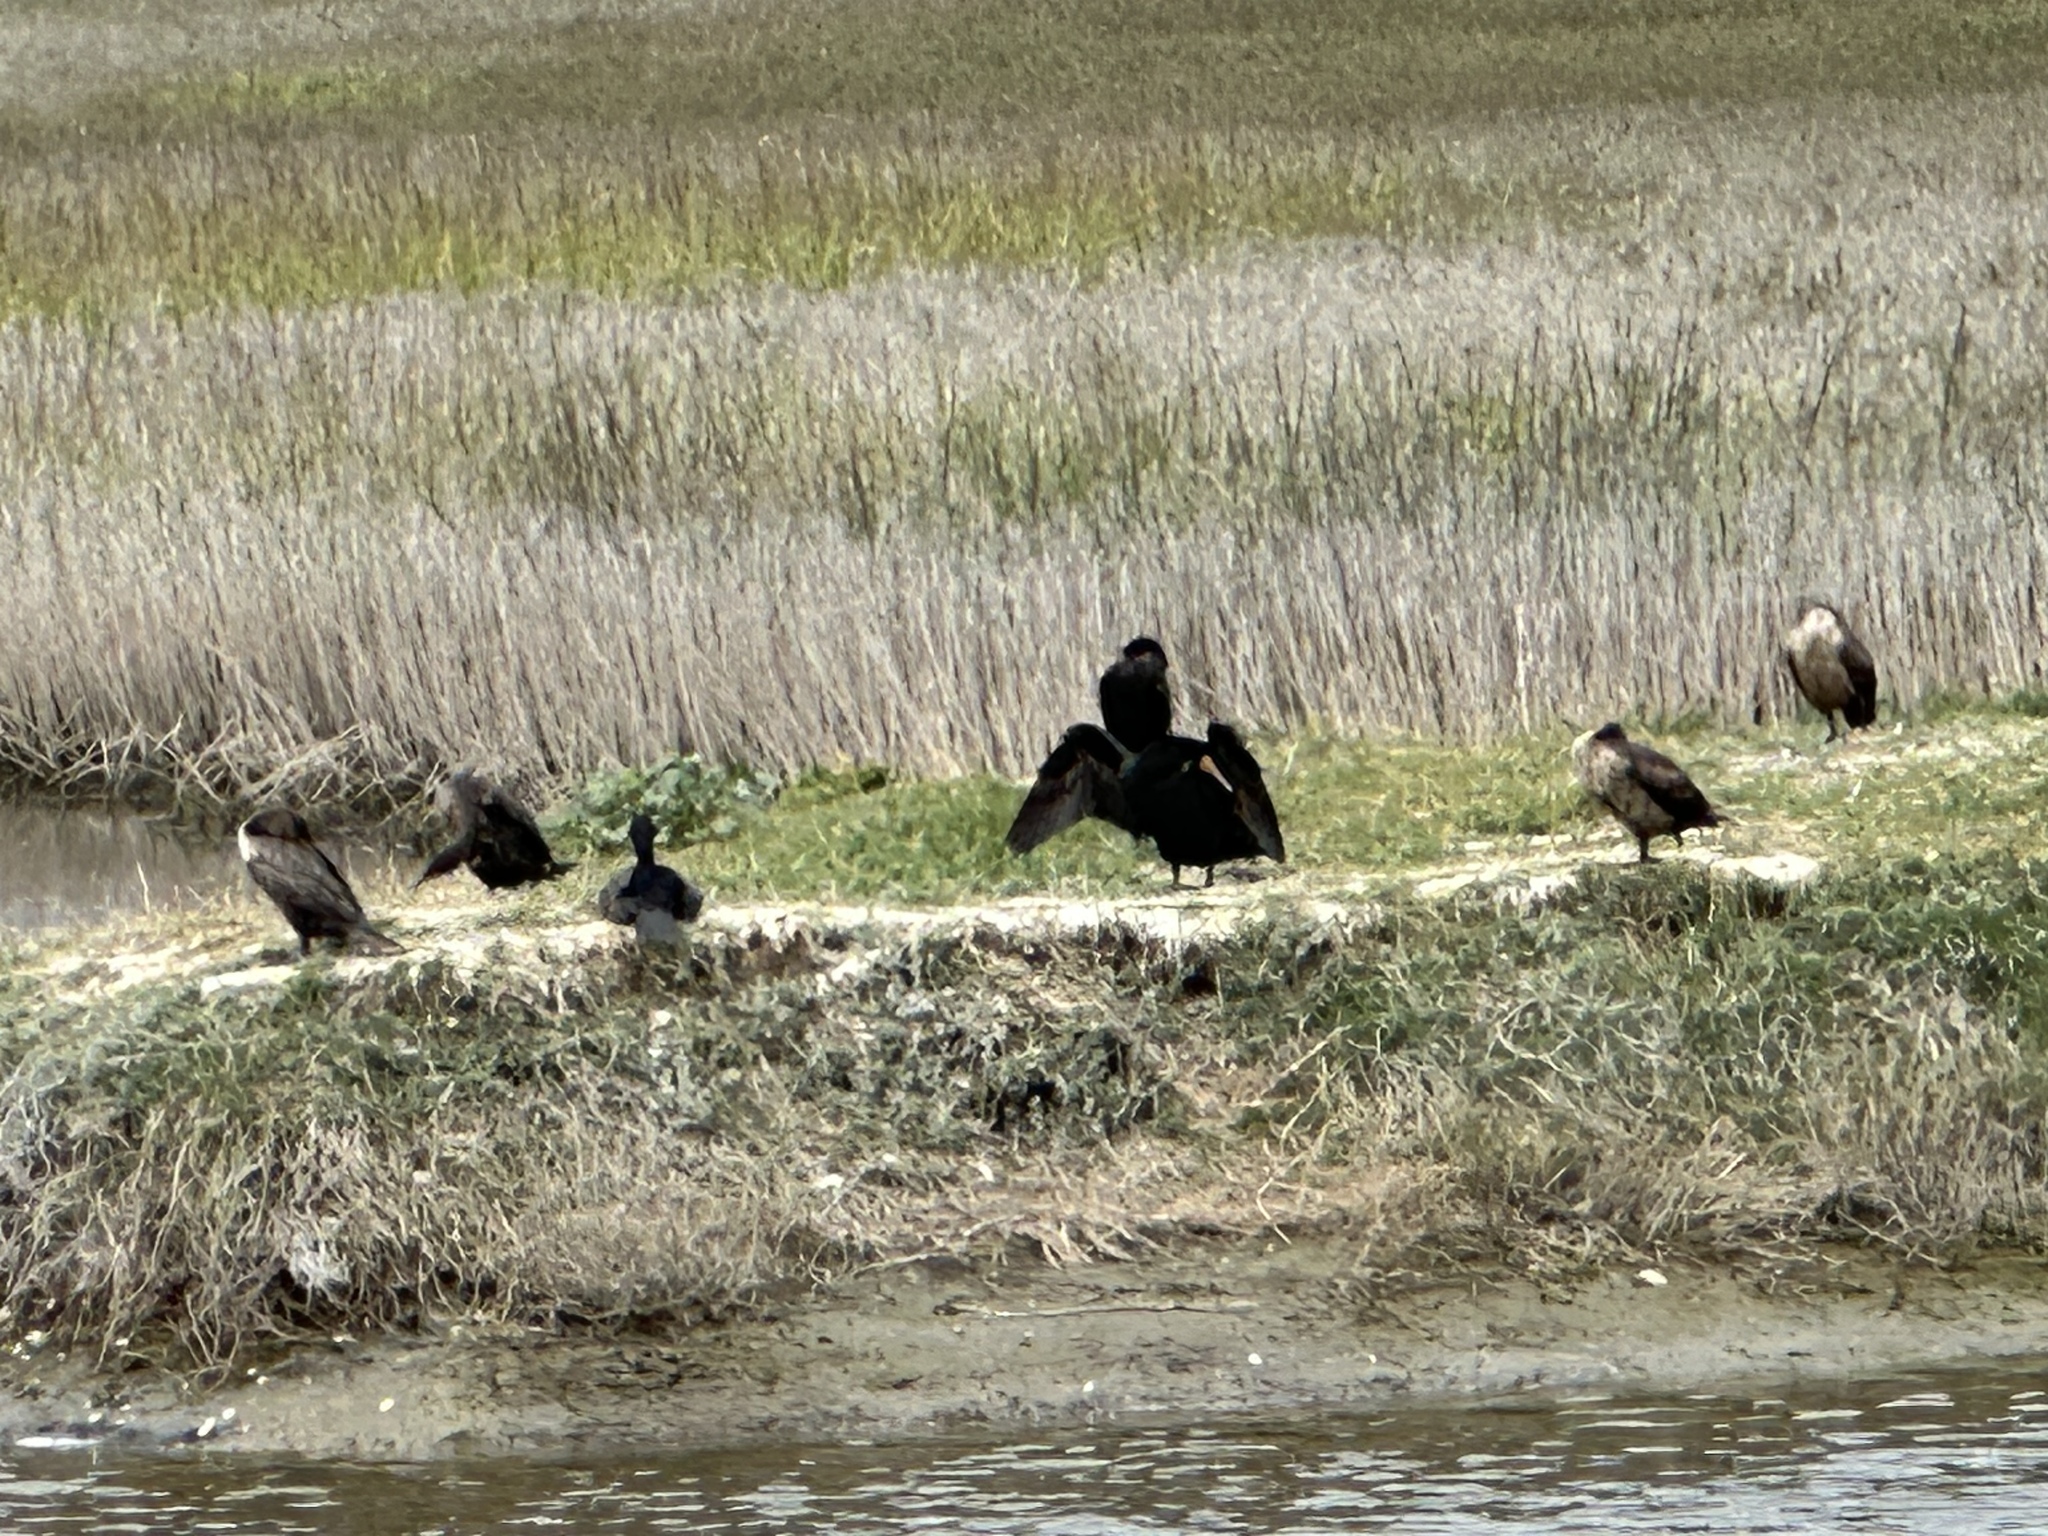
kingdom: Animalia
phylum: Chordata
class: Aves
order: Suliformes
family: Phalacrocoracidae
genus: Phalacrocorax
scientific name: Phalacrocorax auritus
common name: Double-crested cormorant
